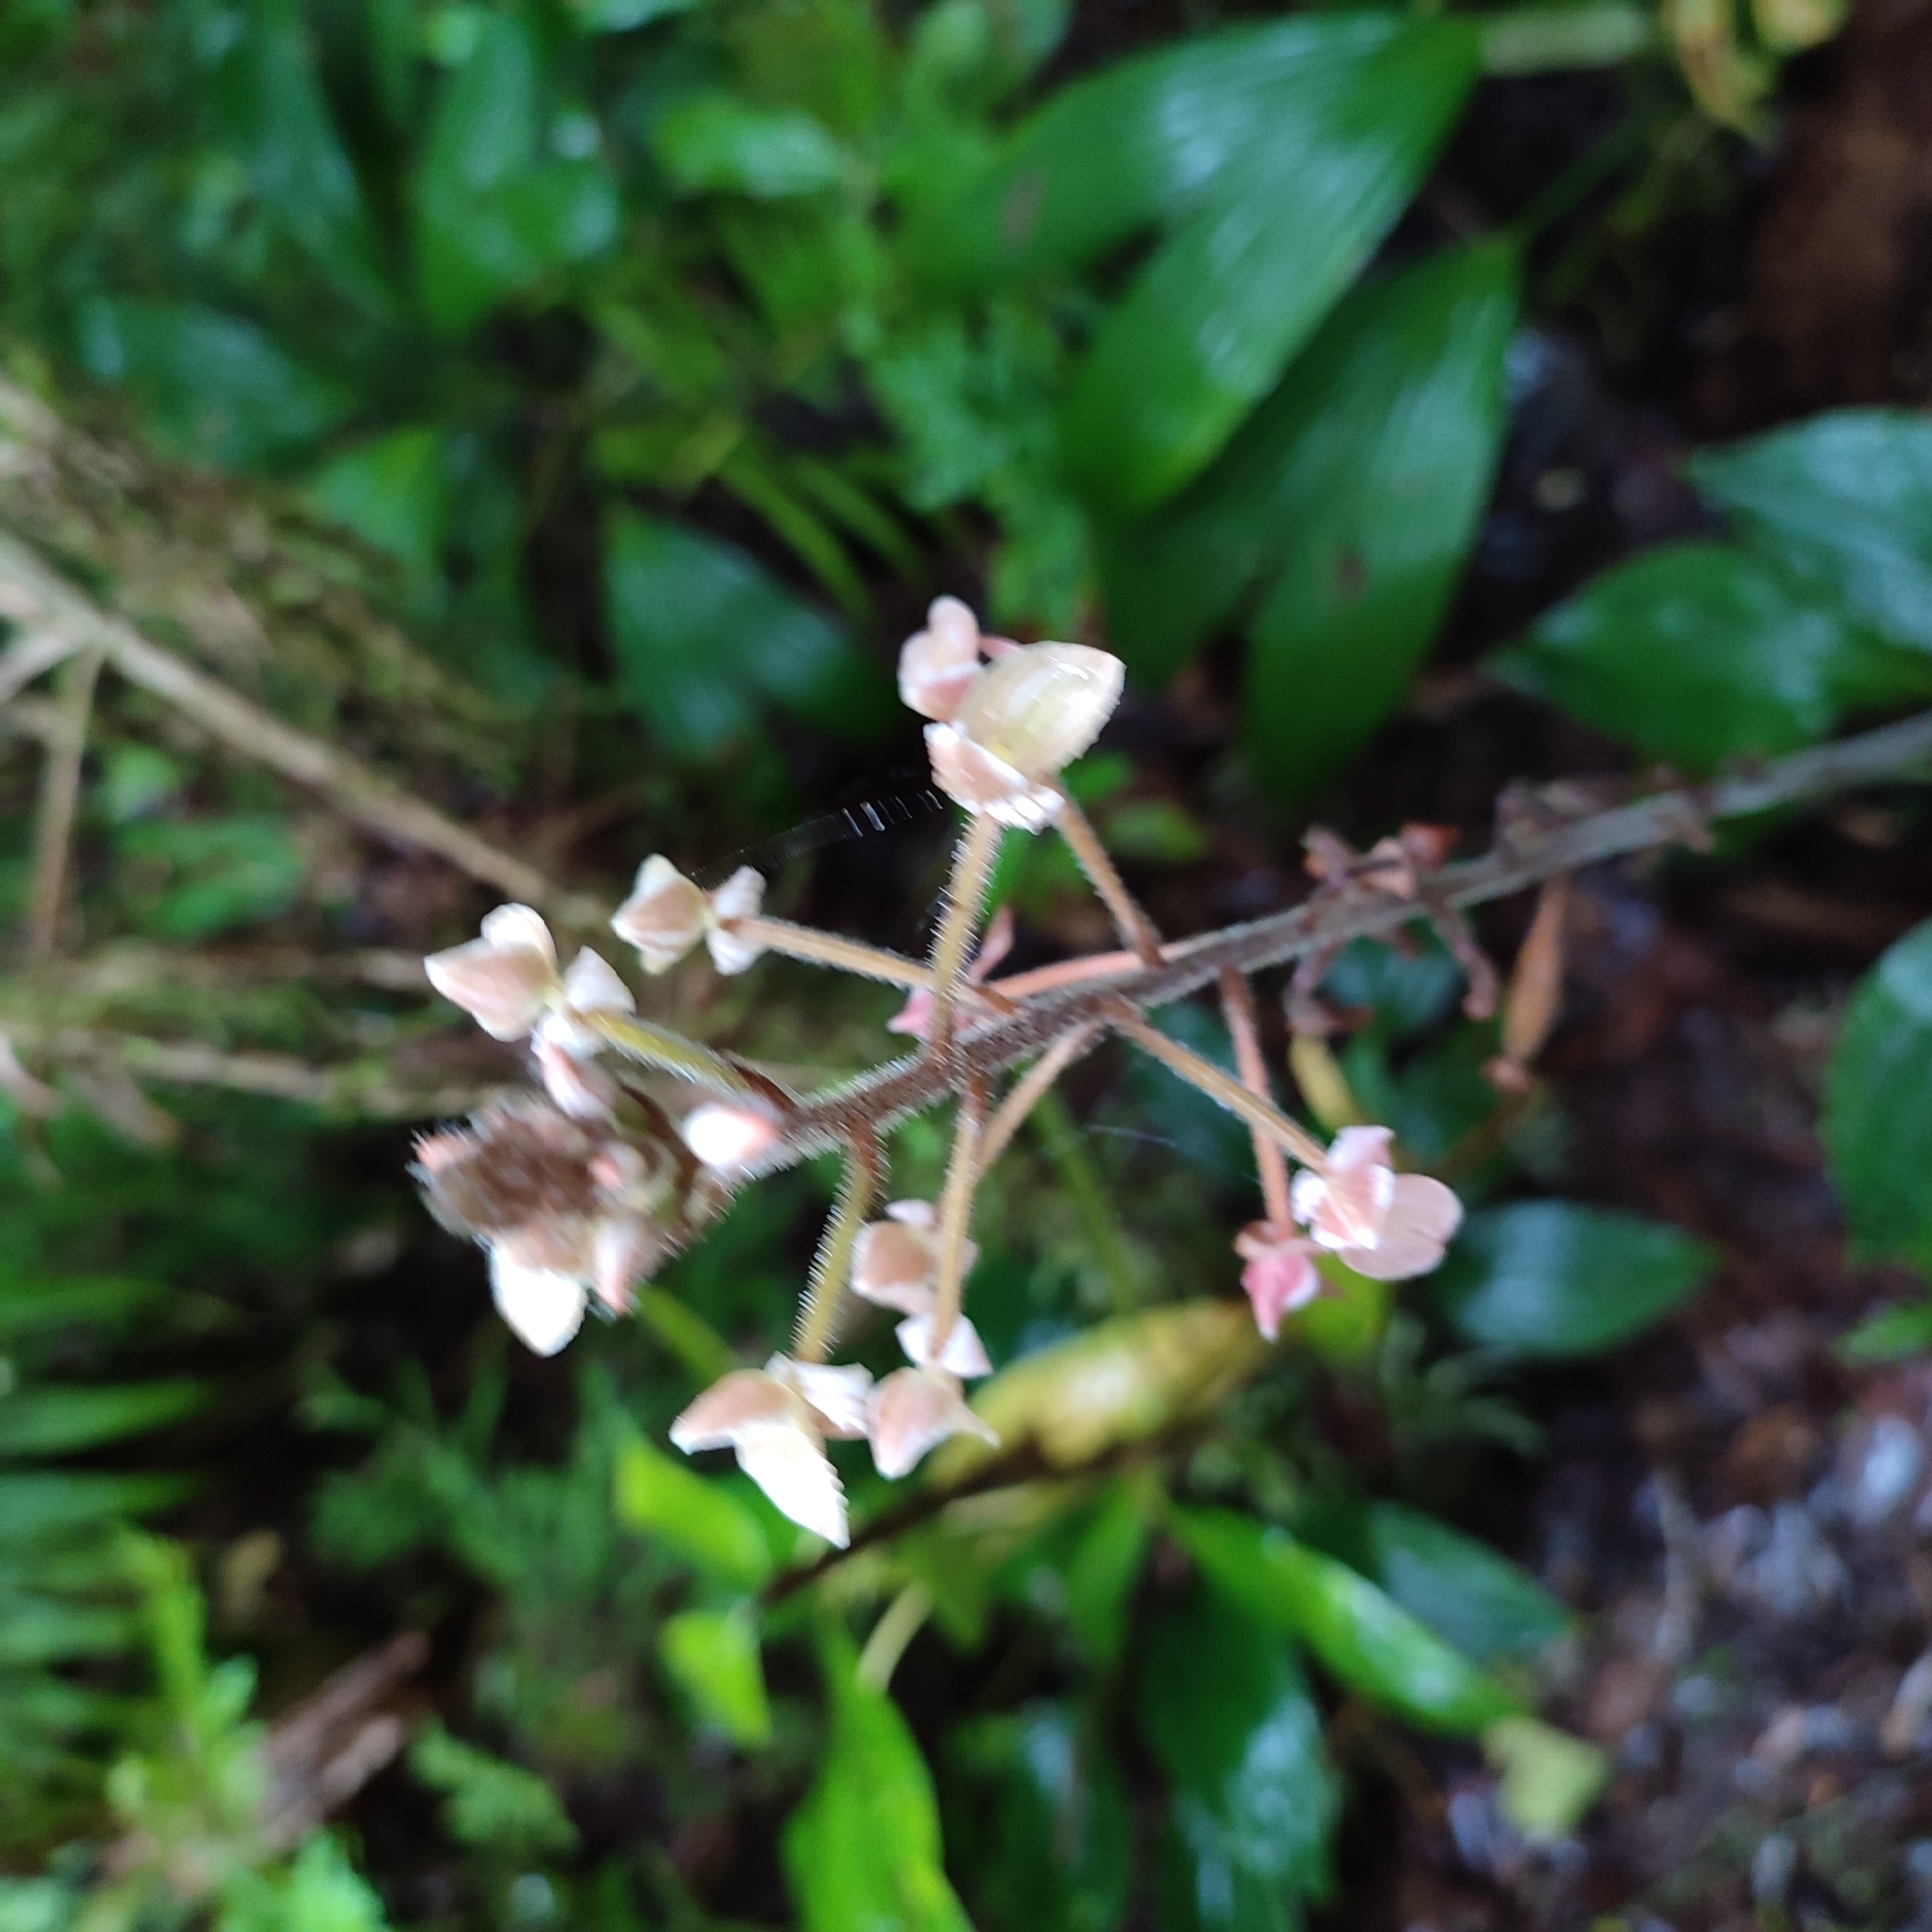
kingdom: Plantae
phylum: Tracheophyta
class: Liliopsida
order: Asparagales
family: Orchidaceae
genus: Ponthieva
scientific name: Ponthieva petiolata
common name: Shadow witch
